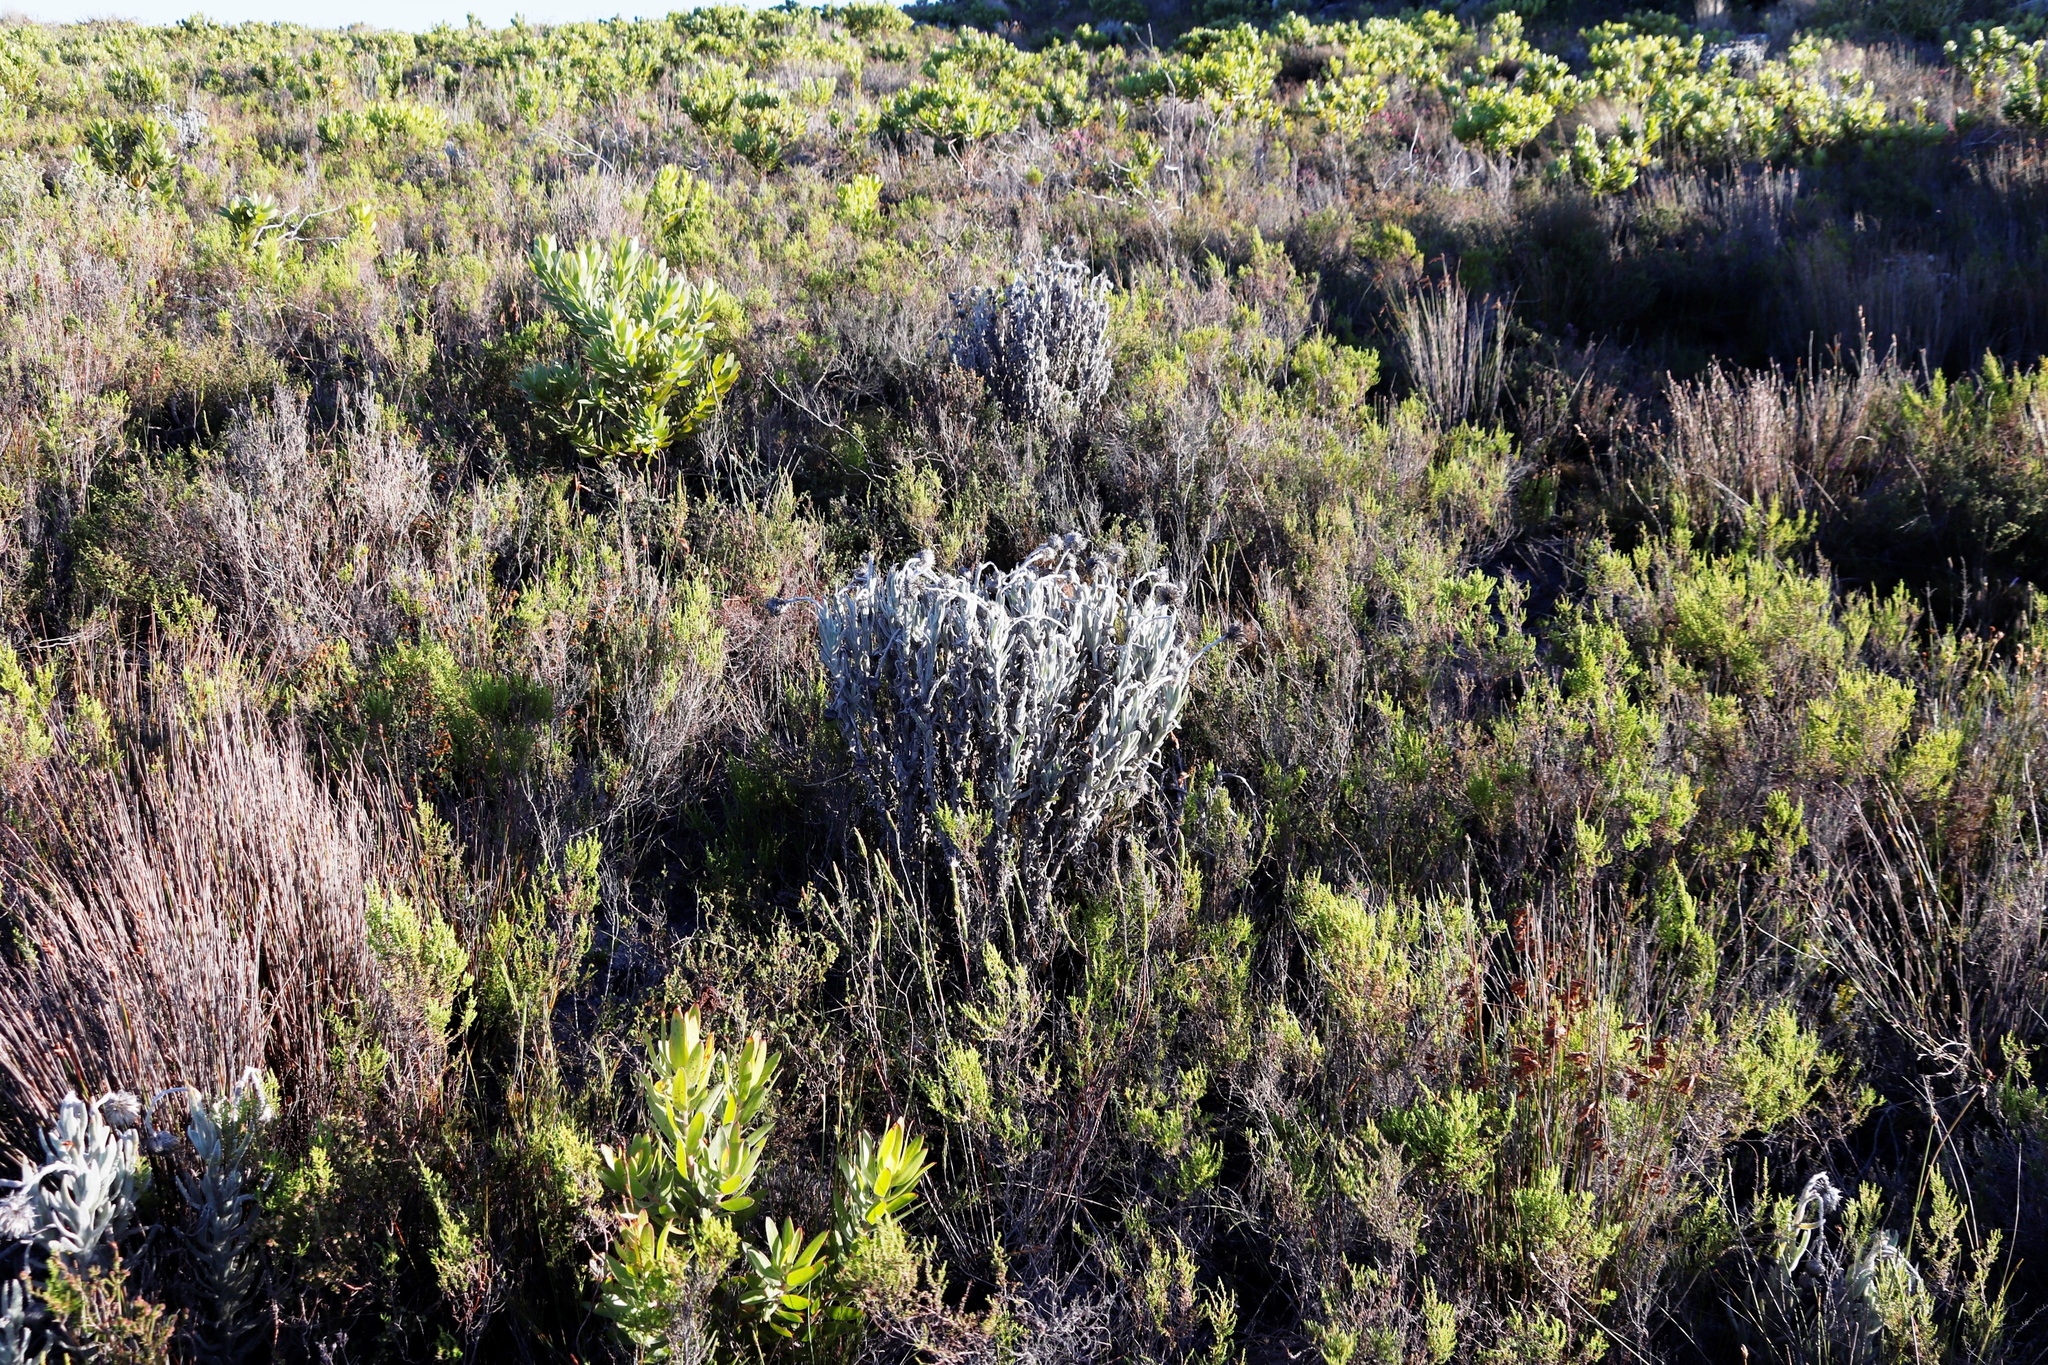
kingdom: Plantae
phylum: Tracheophyta
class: Magnoliopsida
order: Asterales
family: Asteraceae
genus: Syncarpha
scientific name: Syncarpha vestita
